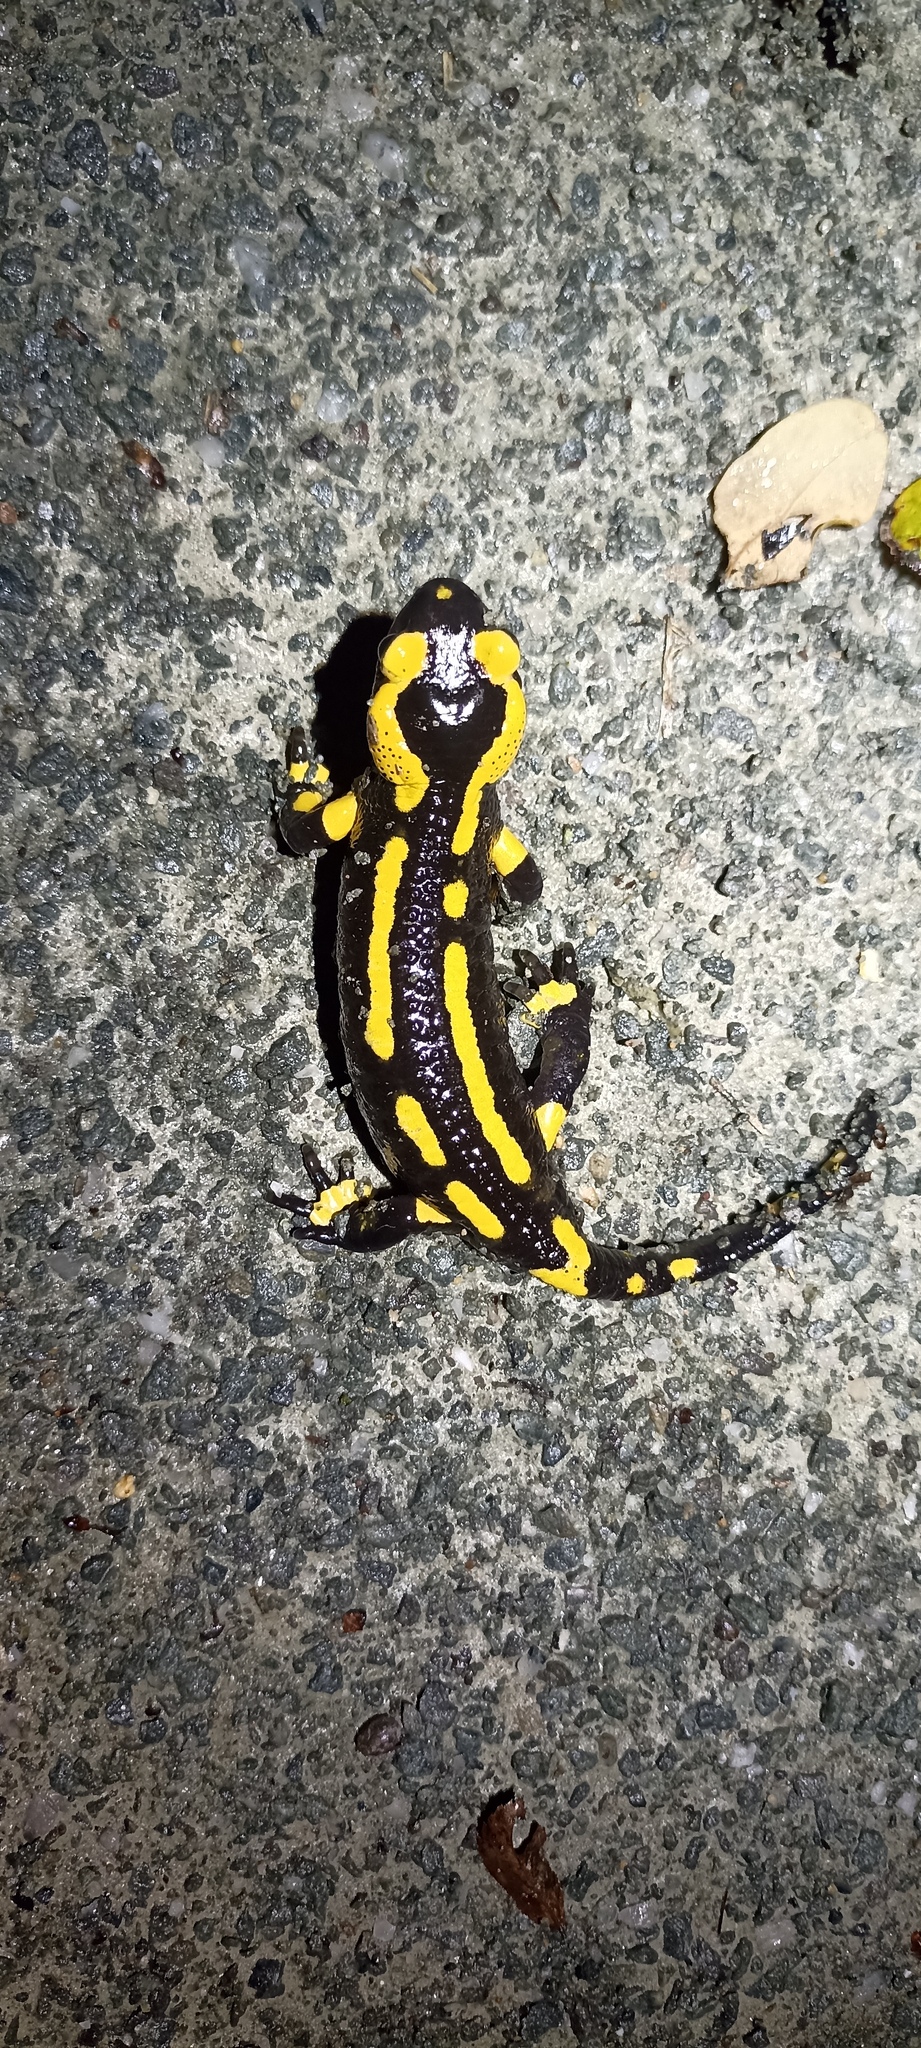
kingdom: Animalia
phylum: Chordata
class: Amphibia
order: Caudata
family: Salamandridae
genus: Salamandra
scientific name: Salamandra salamandra
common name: Fire salamander
